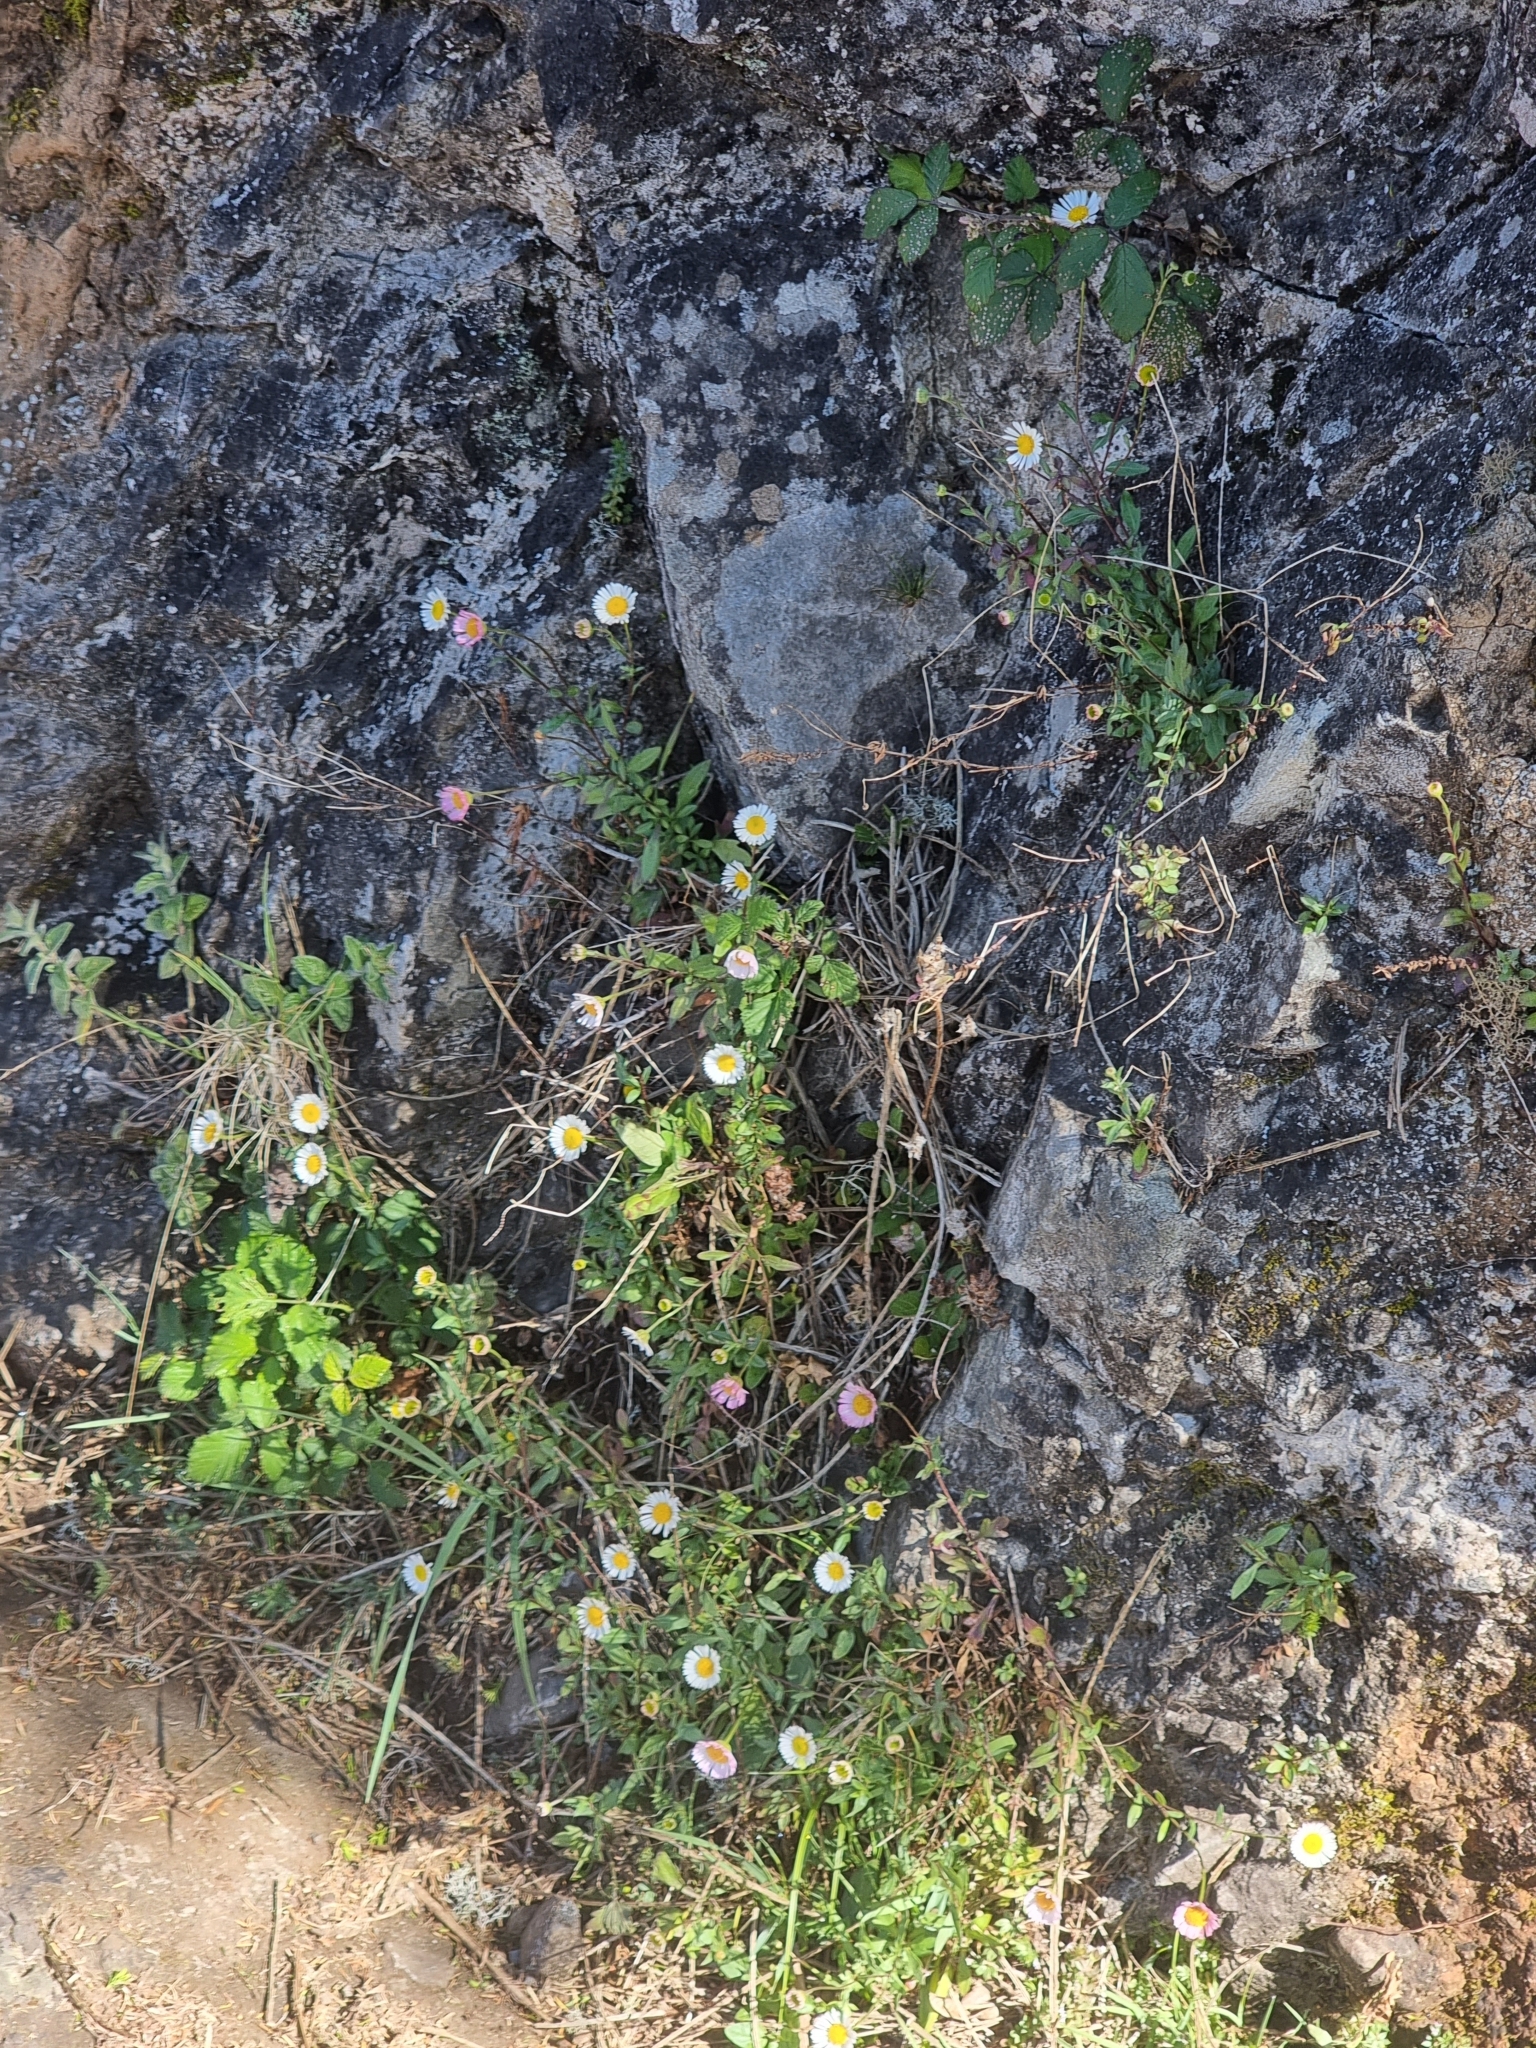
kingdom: Plantae
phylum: Tracheophyta
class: Magnoliopsida
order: Asterales
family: Asteraceae
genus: Erigeron
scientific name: Erigeron karvinskianus
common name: Mexican fleabane
